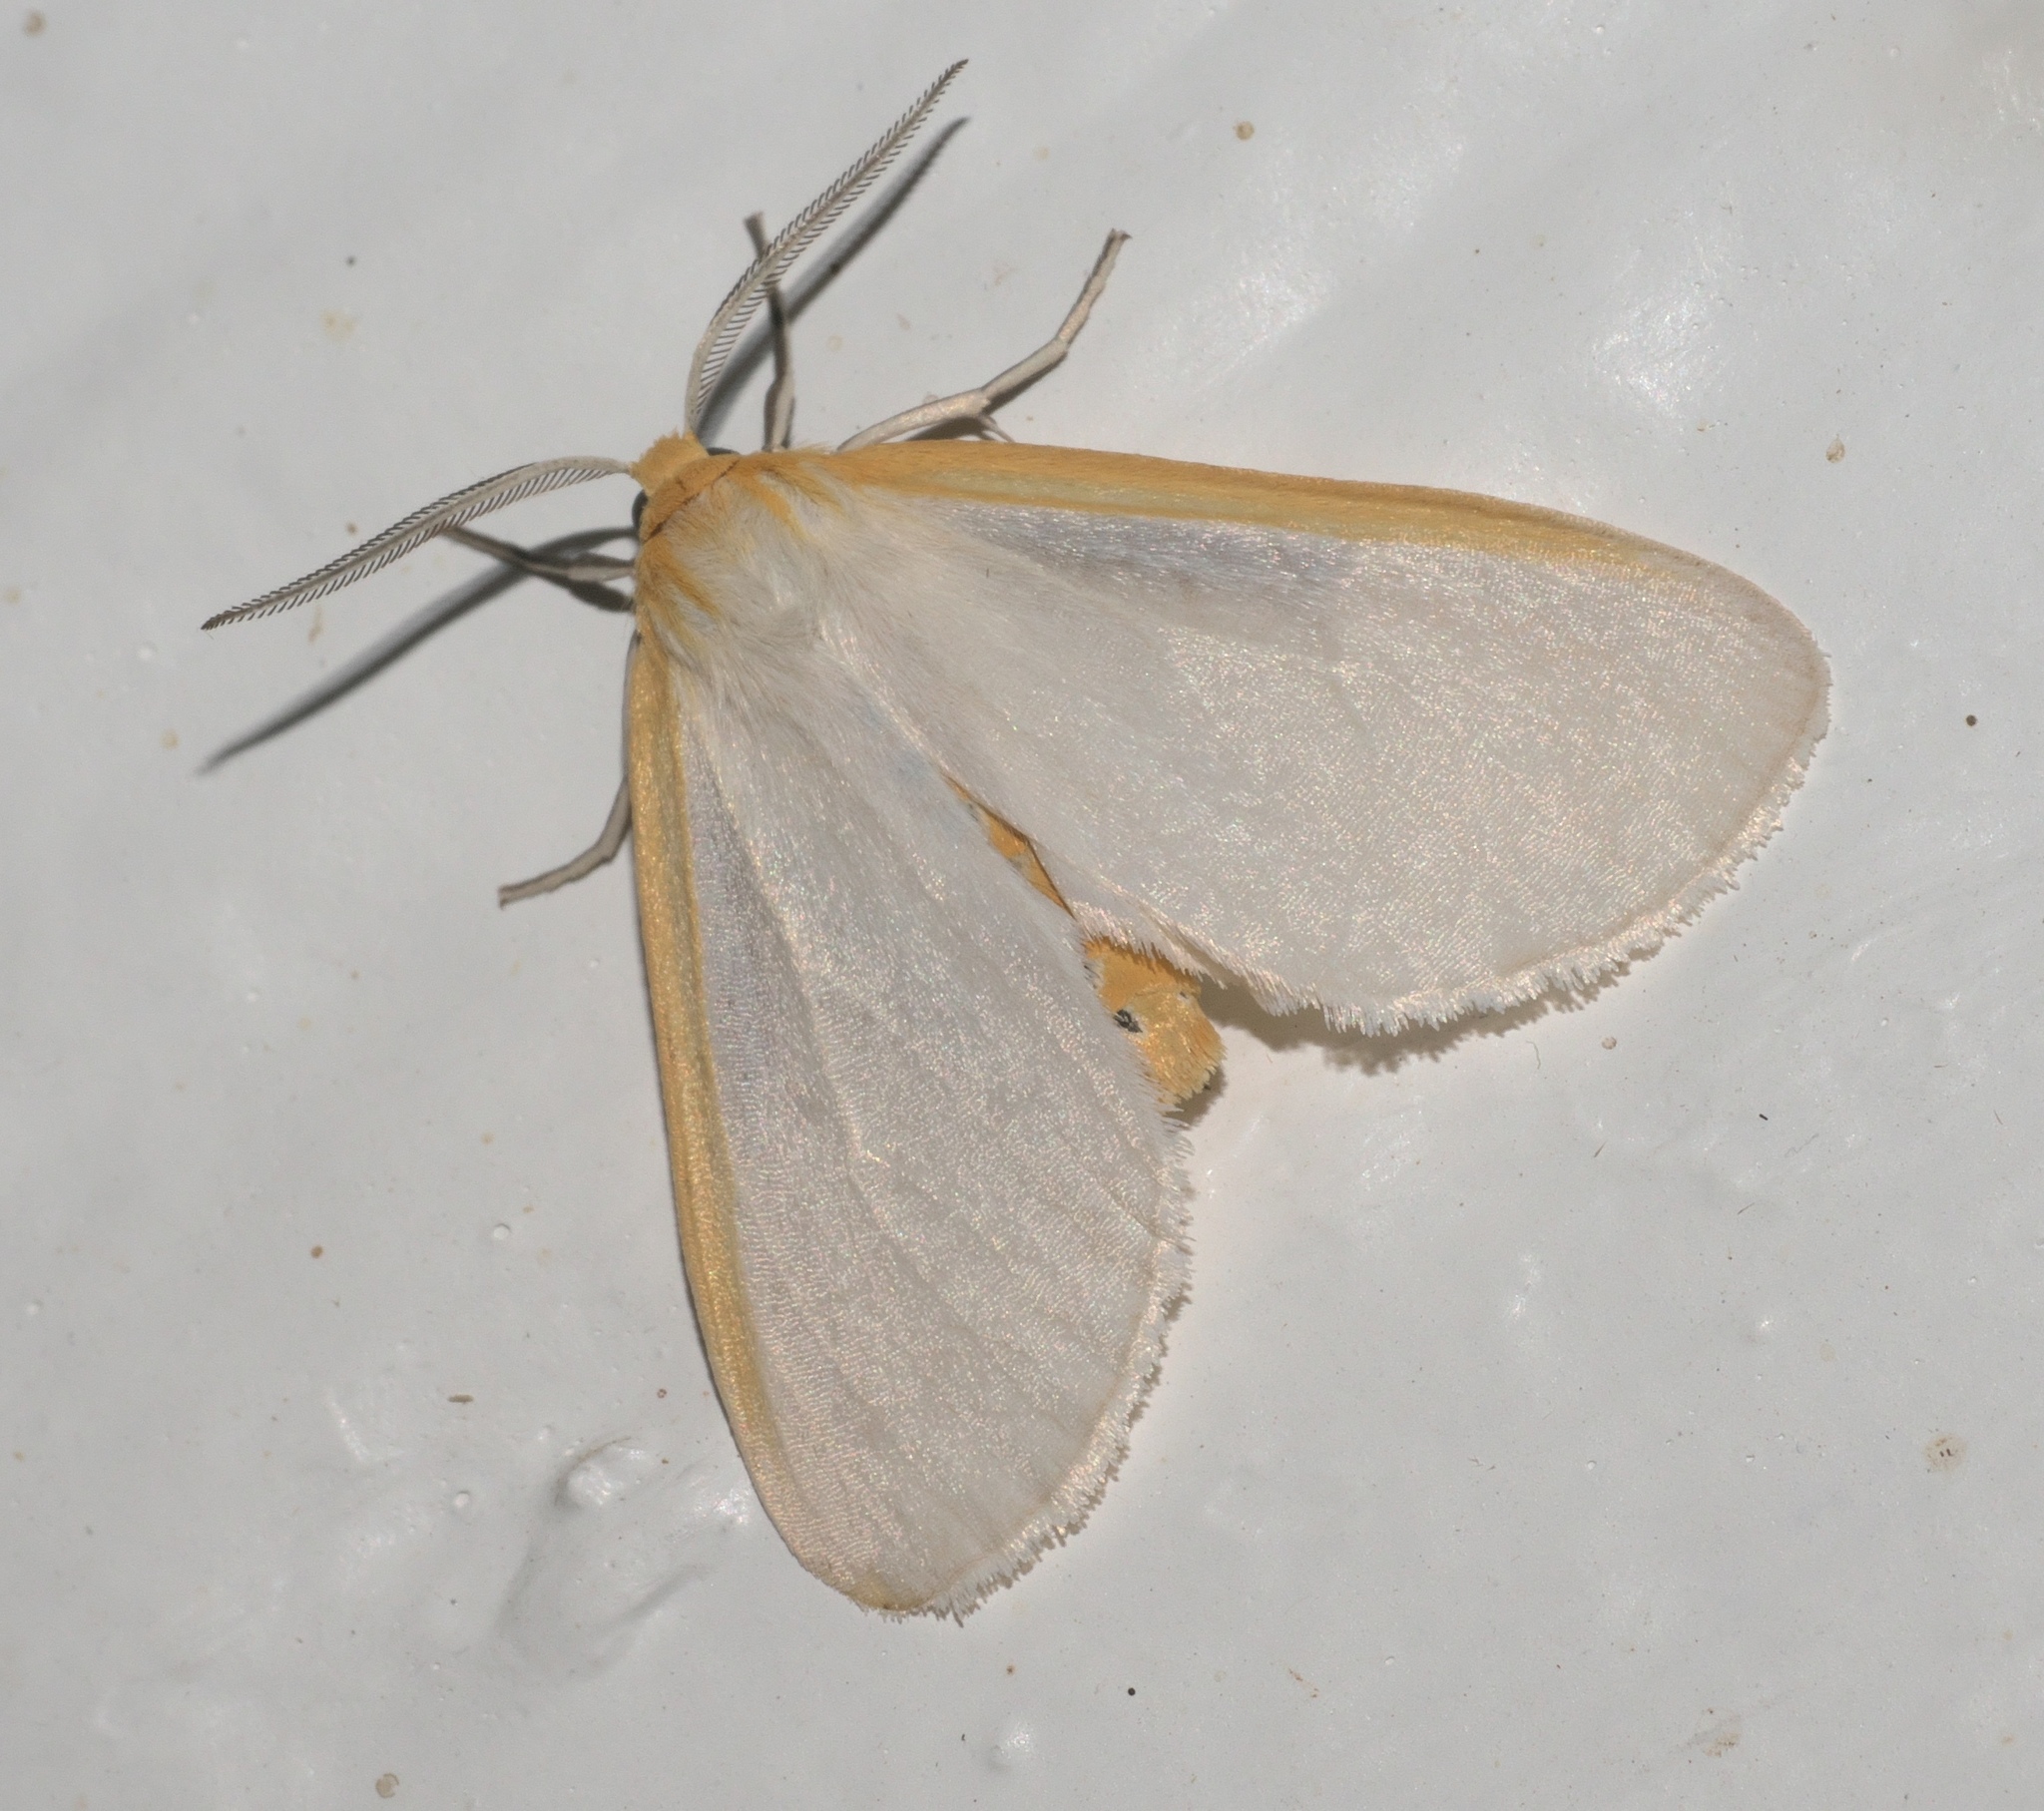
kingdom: Animalia
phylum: Arthropoda
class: Insecta
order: Lepidoptera
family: Erebidae
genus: Cycnia
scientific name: Cycnia tenera
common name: Delicate cycnia moth
